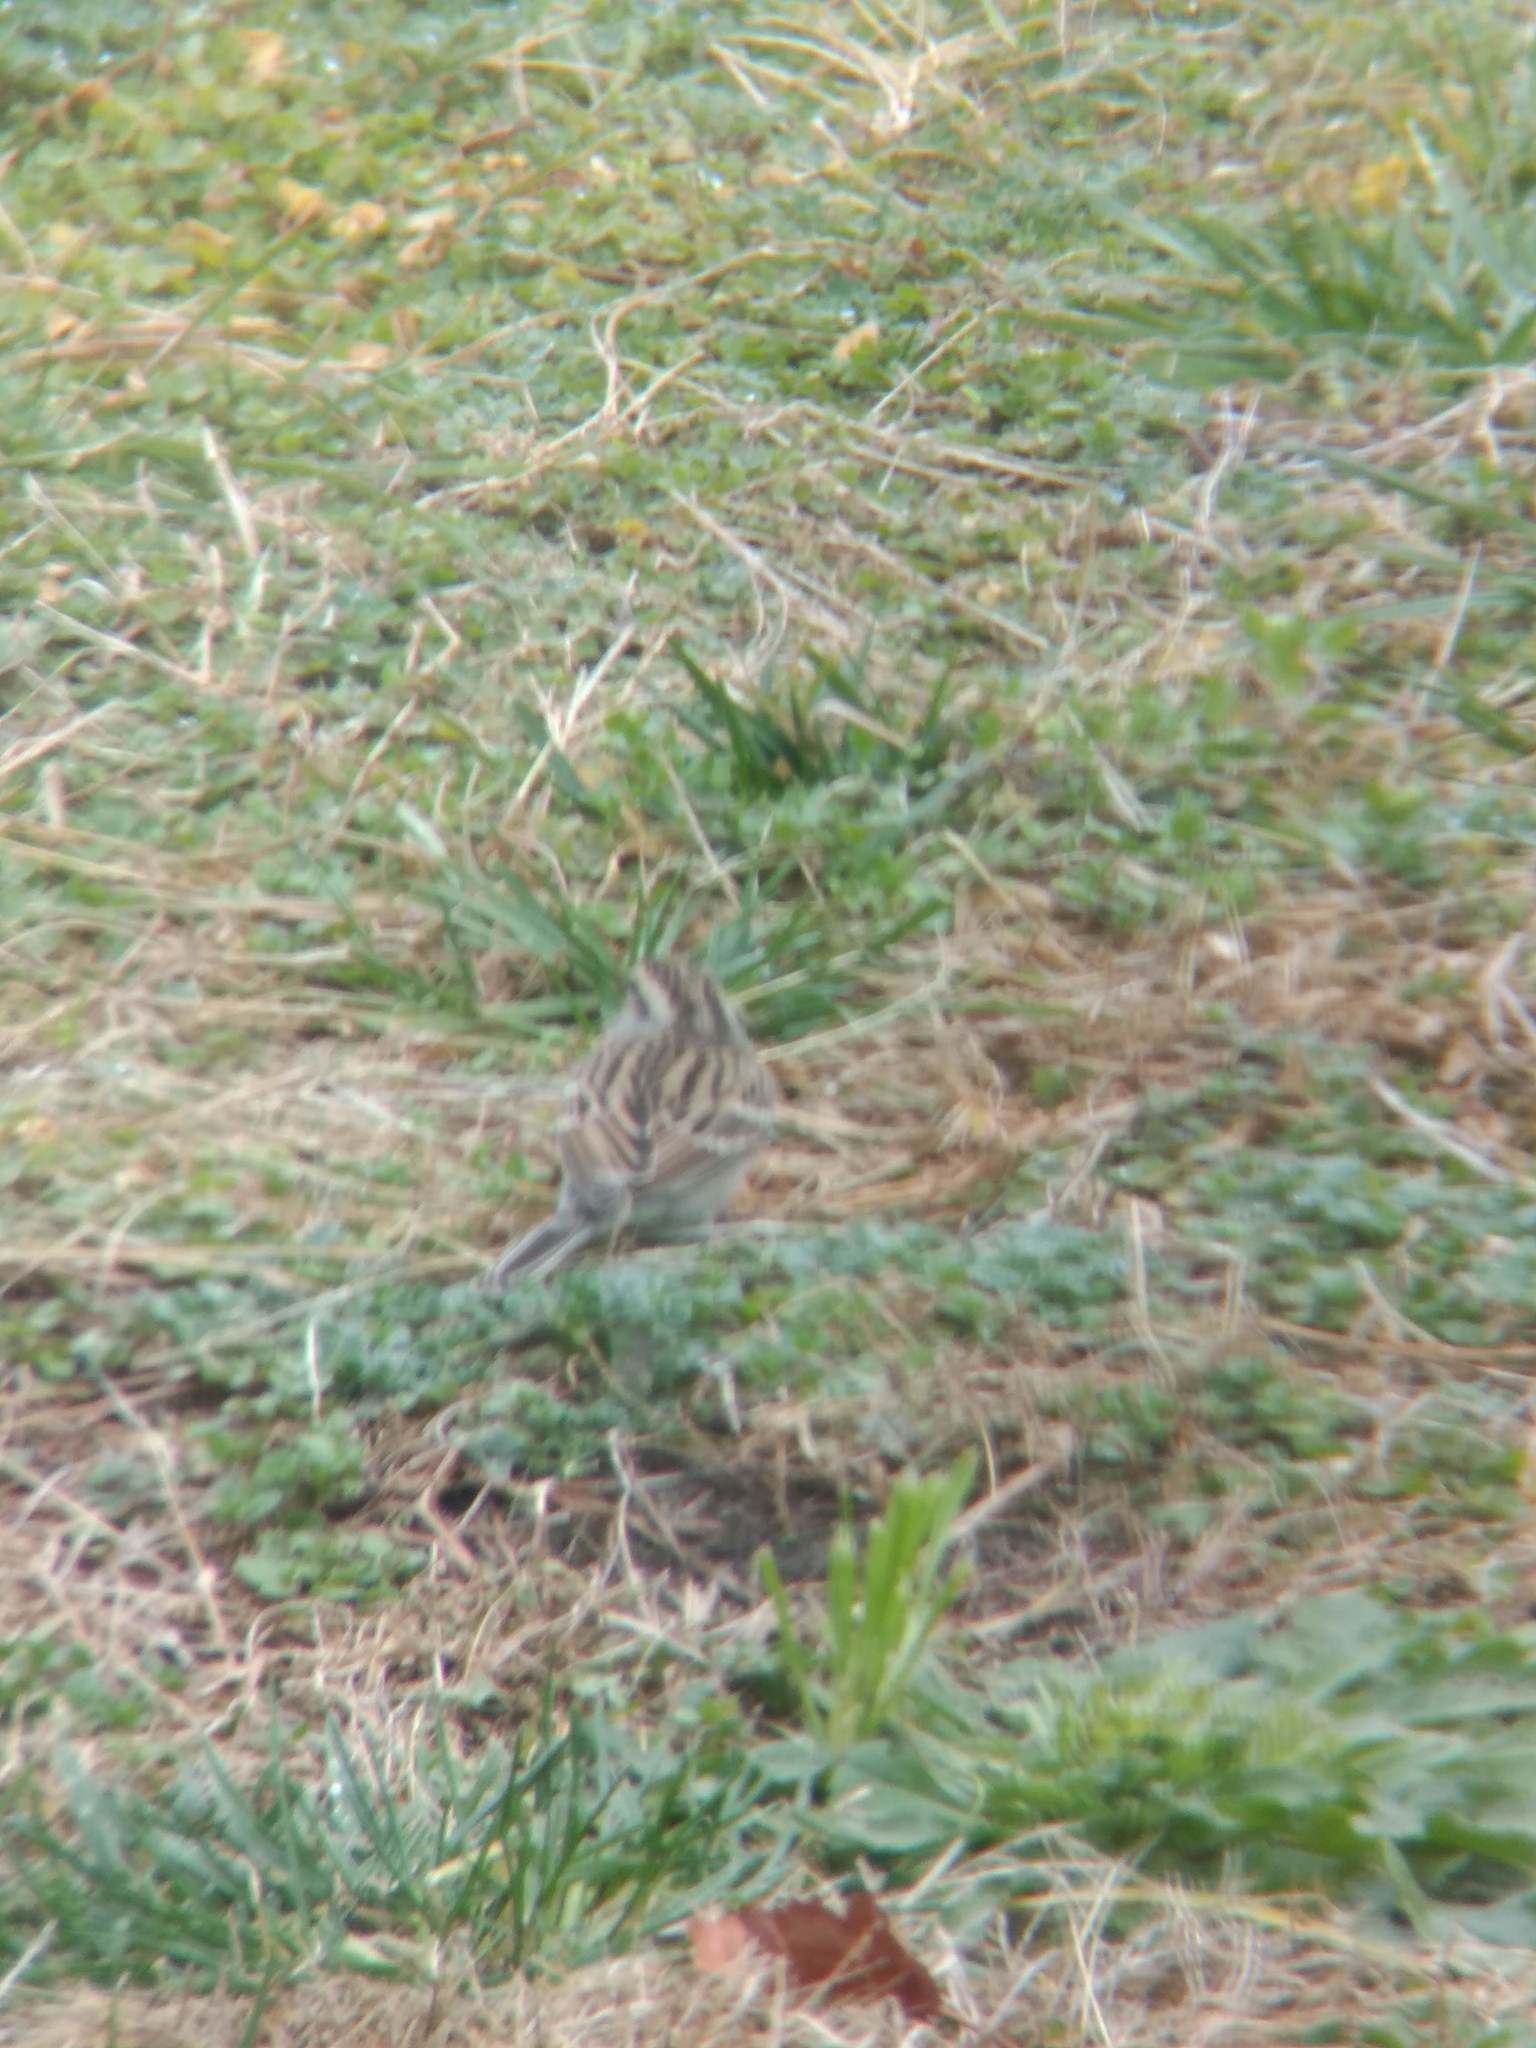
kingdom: Animalia
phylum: Chordata
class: Aves
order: Passeriformes
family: Passerellidae
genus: Spizella
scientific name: Spizella passerina
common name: Chipping sparrow
